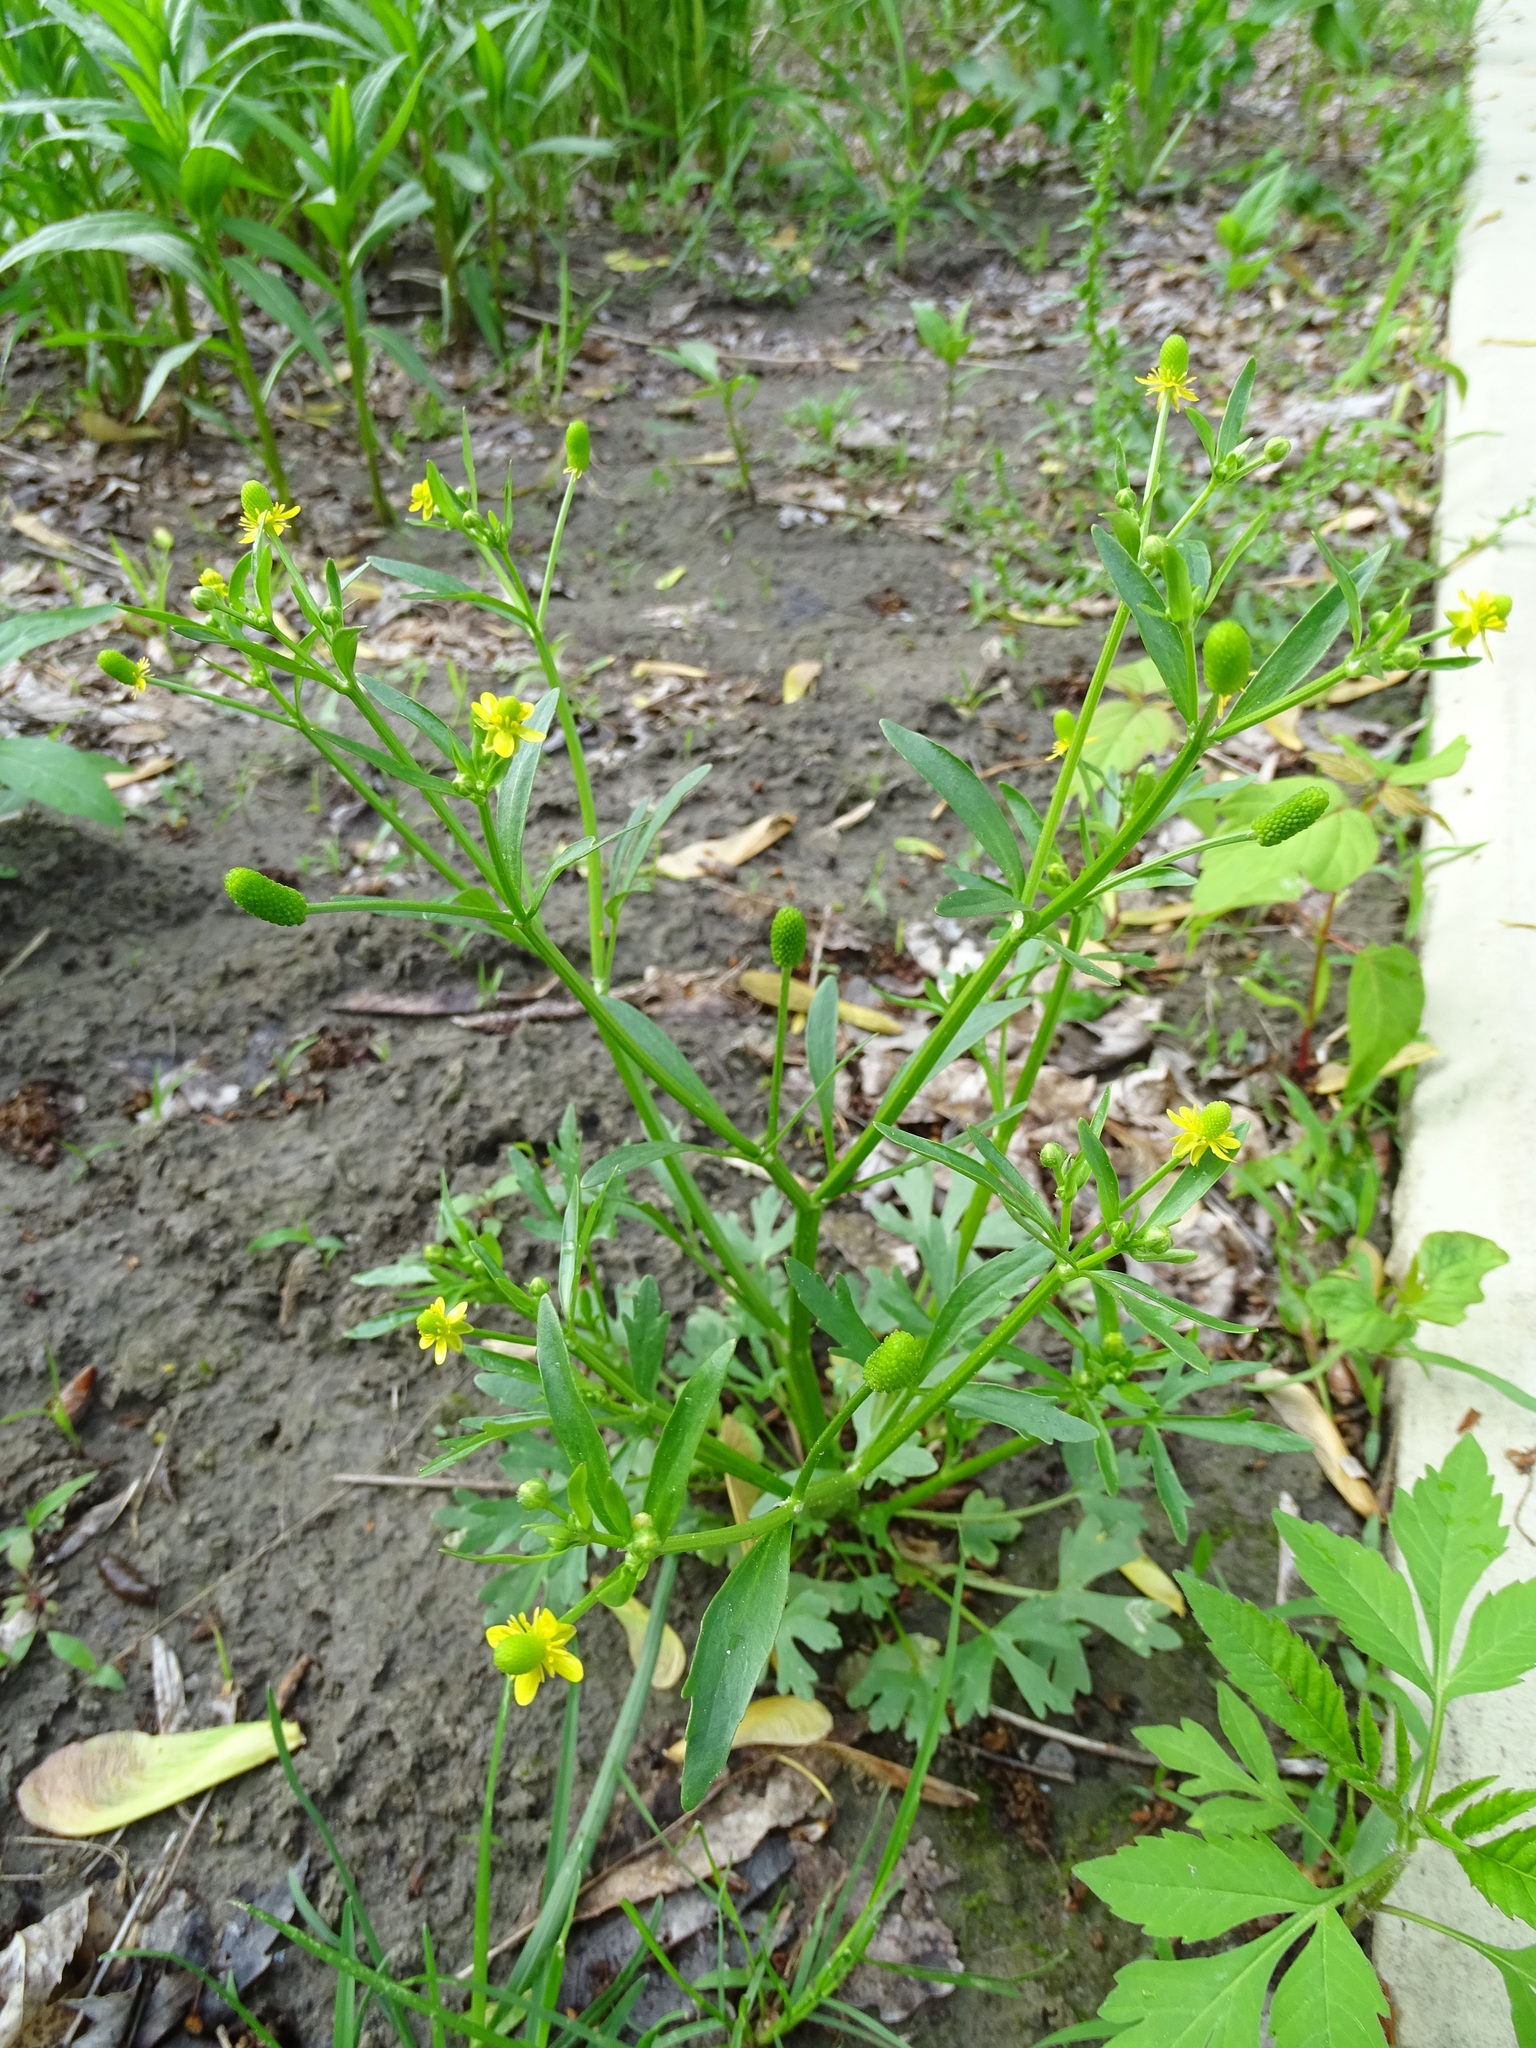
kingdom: Plantae
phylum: Tracheophyta
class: Magnoliopsida
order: Ranunculales
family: Ranunculaceae
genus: Ranunculus
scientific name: Ranunculus abortivus
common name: Early wood buttercup
